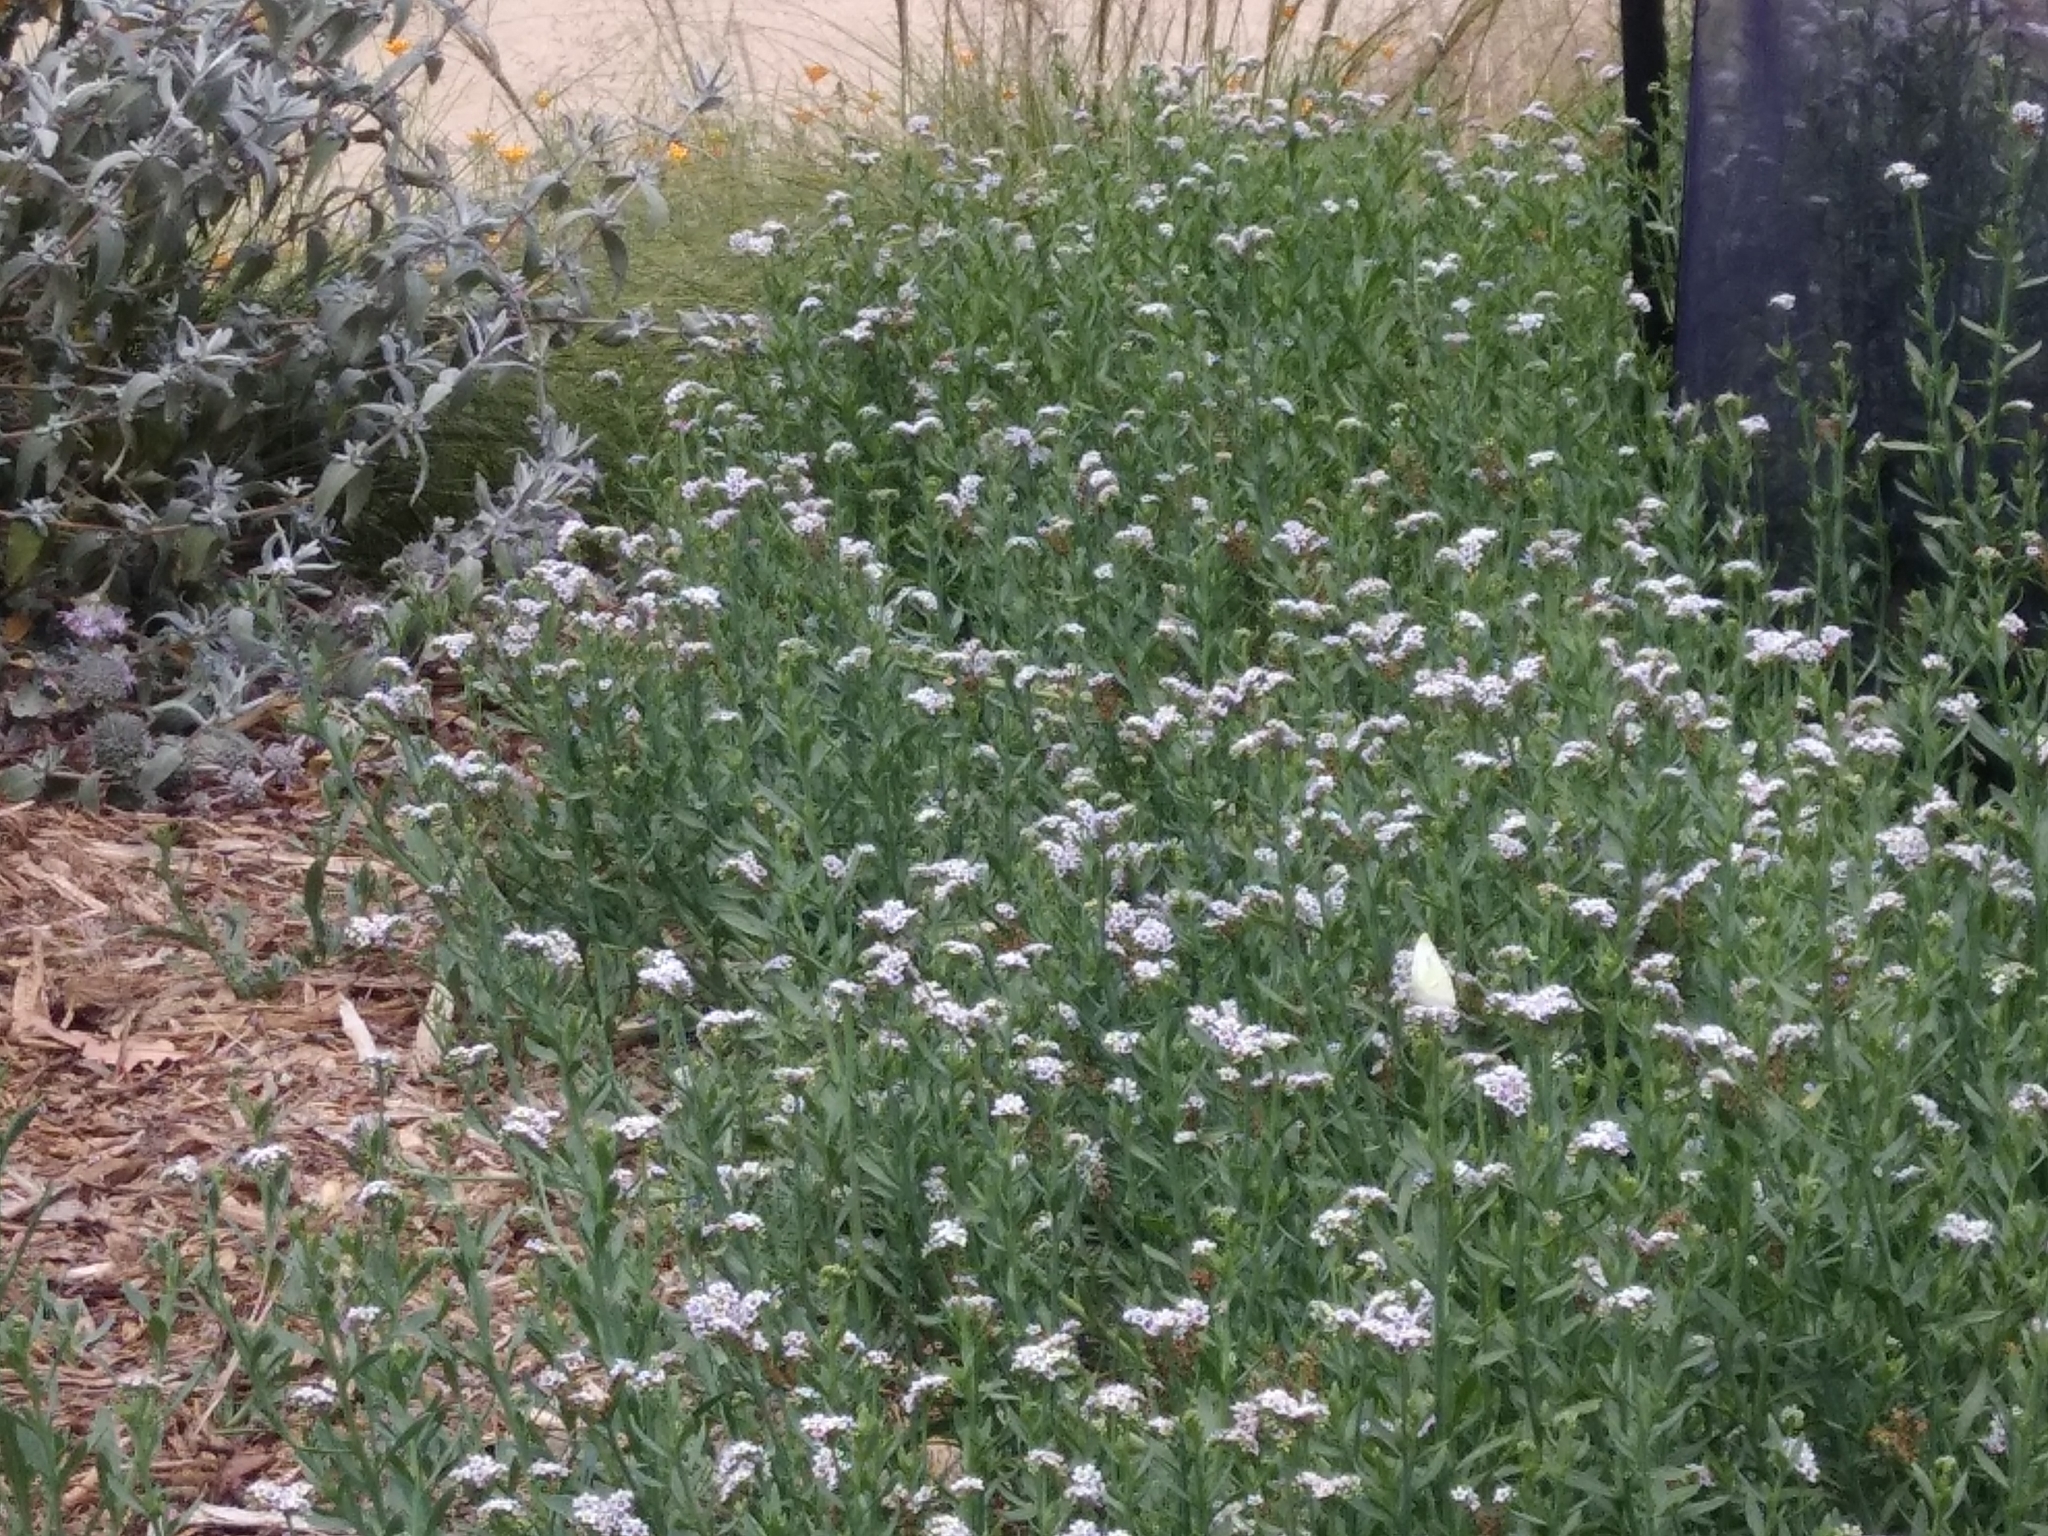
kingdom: Animalia
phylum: Arthropoda
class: Insecta
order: Lepidoptera
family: Pieridae
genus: Pieris
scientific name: Pieris rapae
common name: Small white
